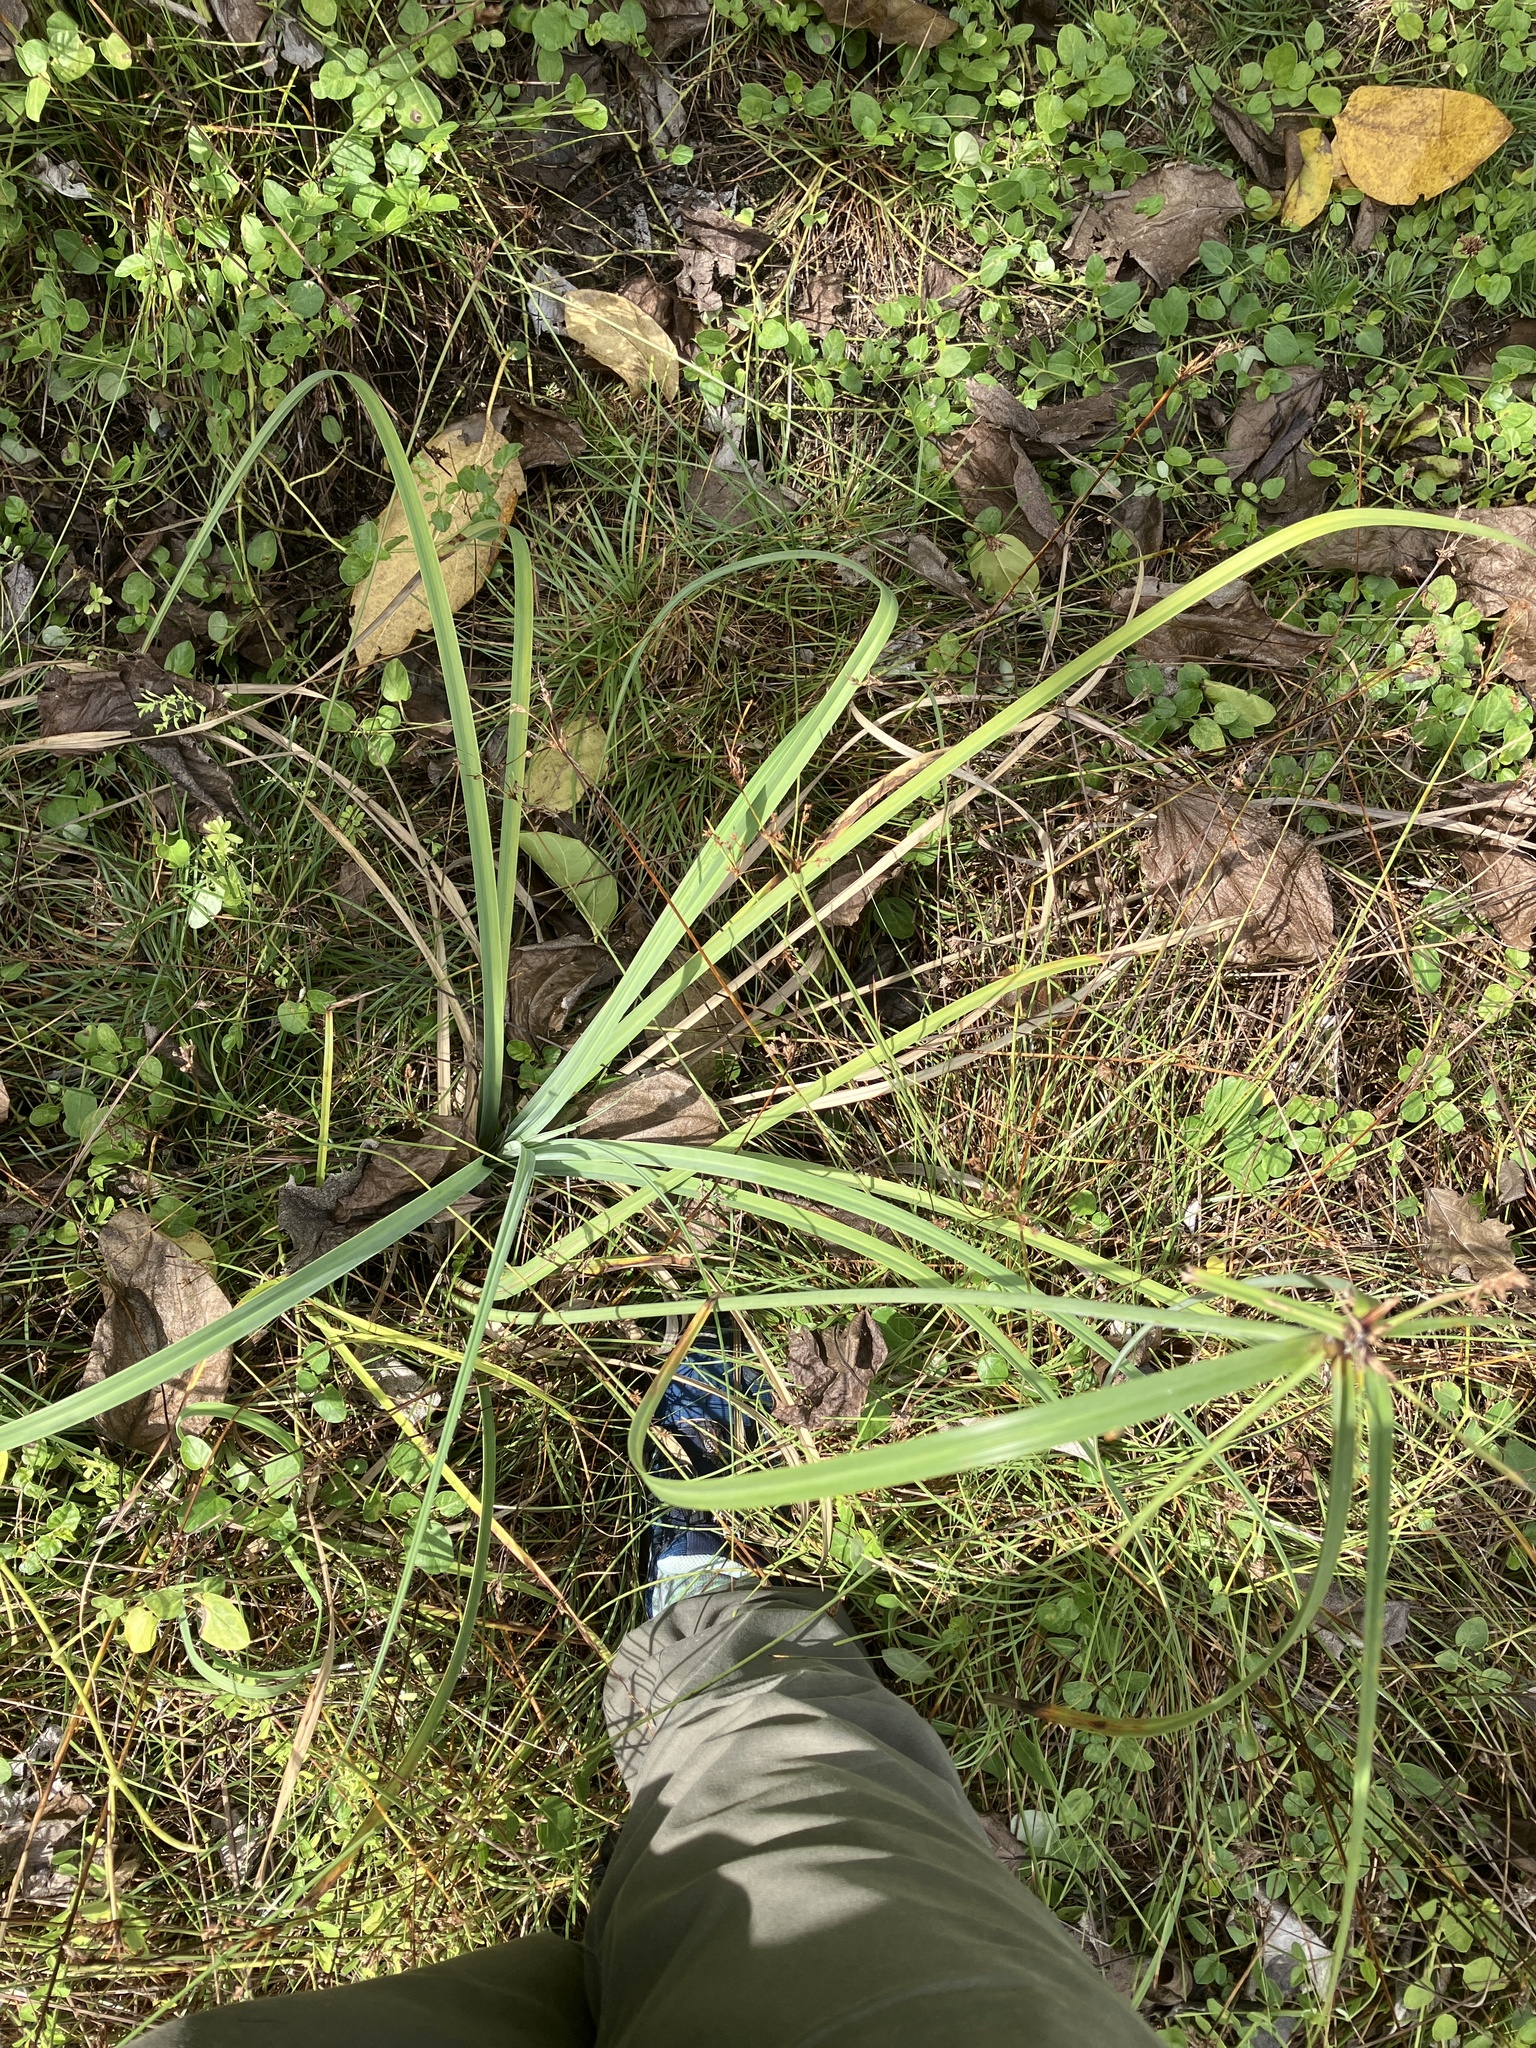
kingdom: Plantae
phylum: Tracheophyta
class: Liliopsida
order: Poales
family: Cyperaceae
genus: Cyperus
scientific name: Cyperus javanicus
